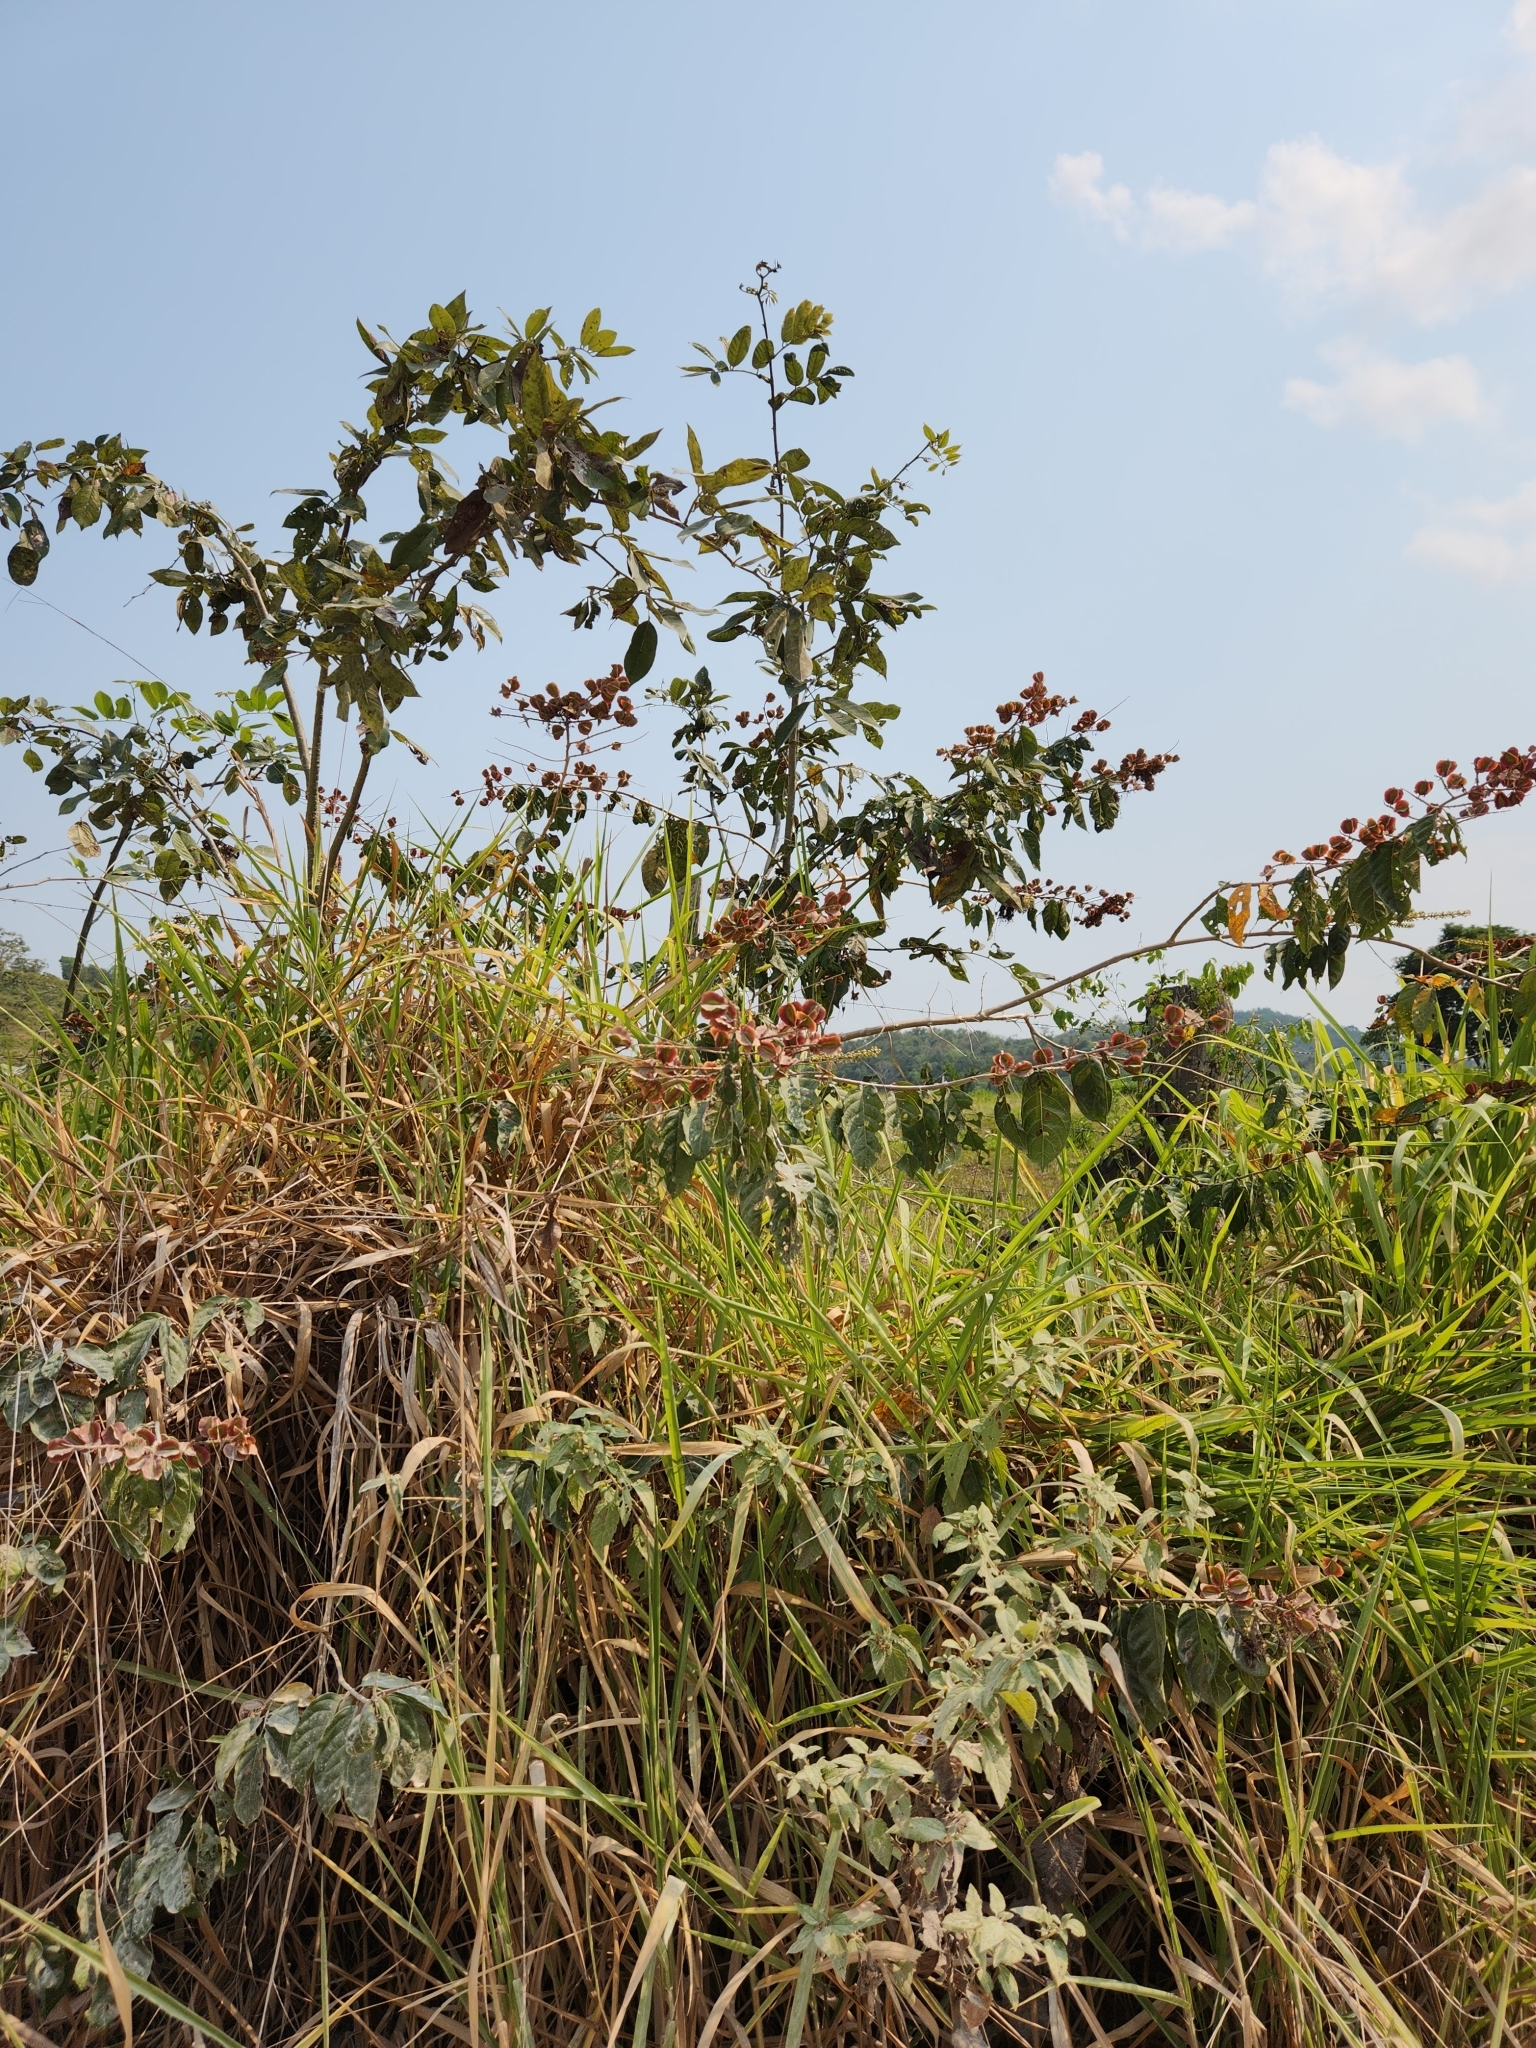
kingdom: Plantae
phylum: Tracheophyta
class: Magnoliopsida
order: Myrtales
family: Combretaceae
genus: Combretum
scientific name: Combretum fruticosum
